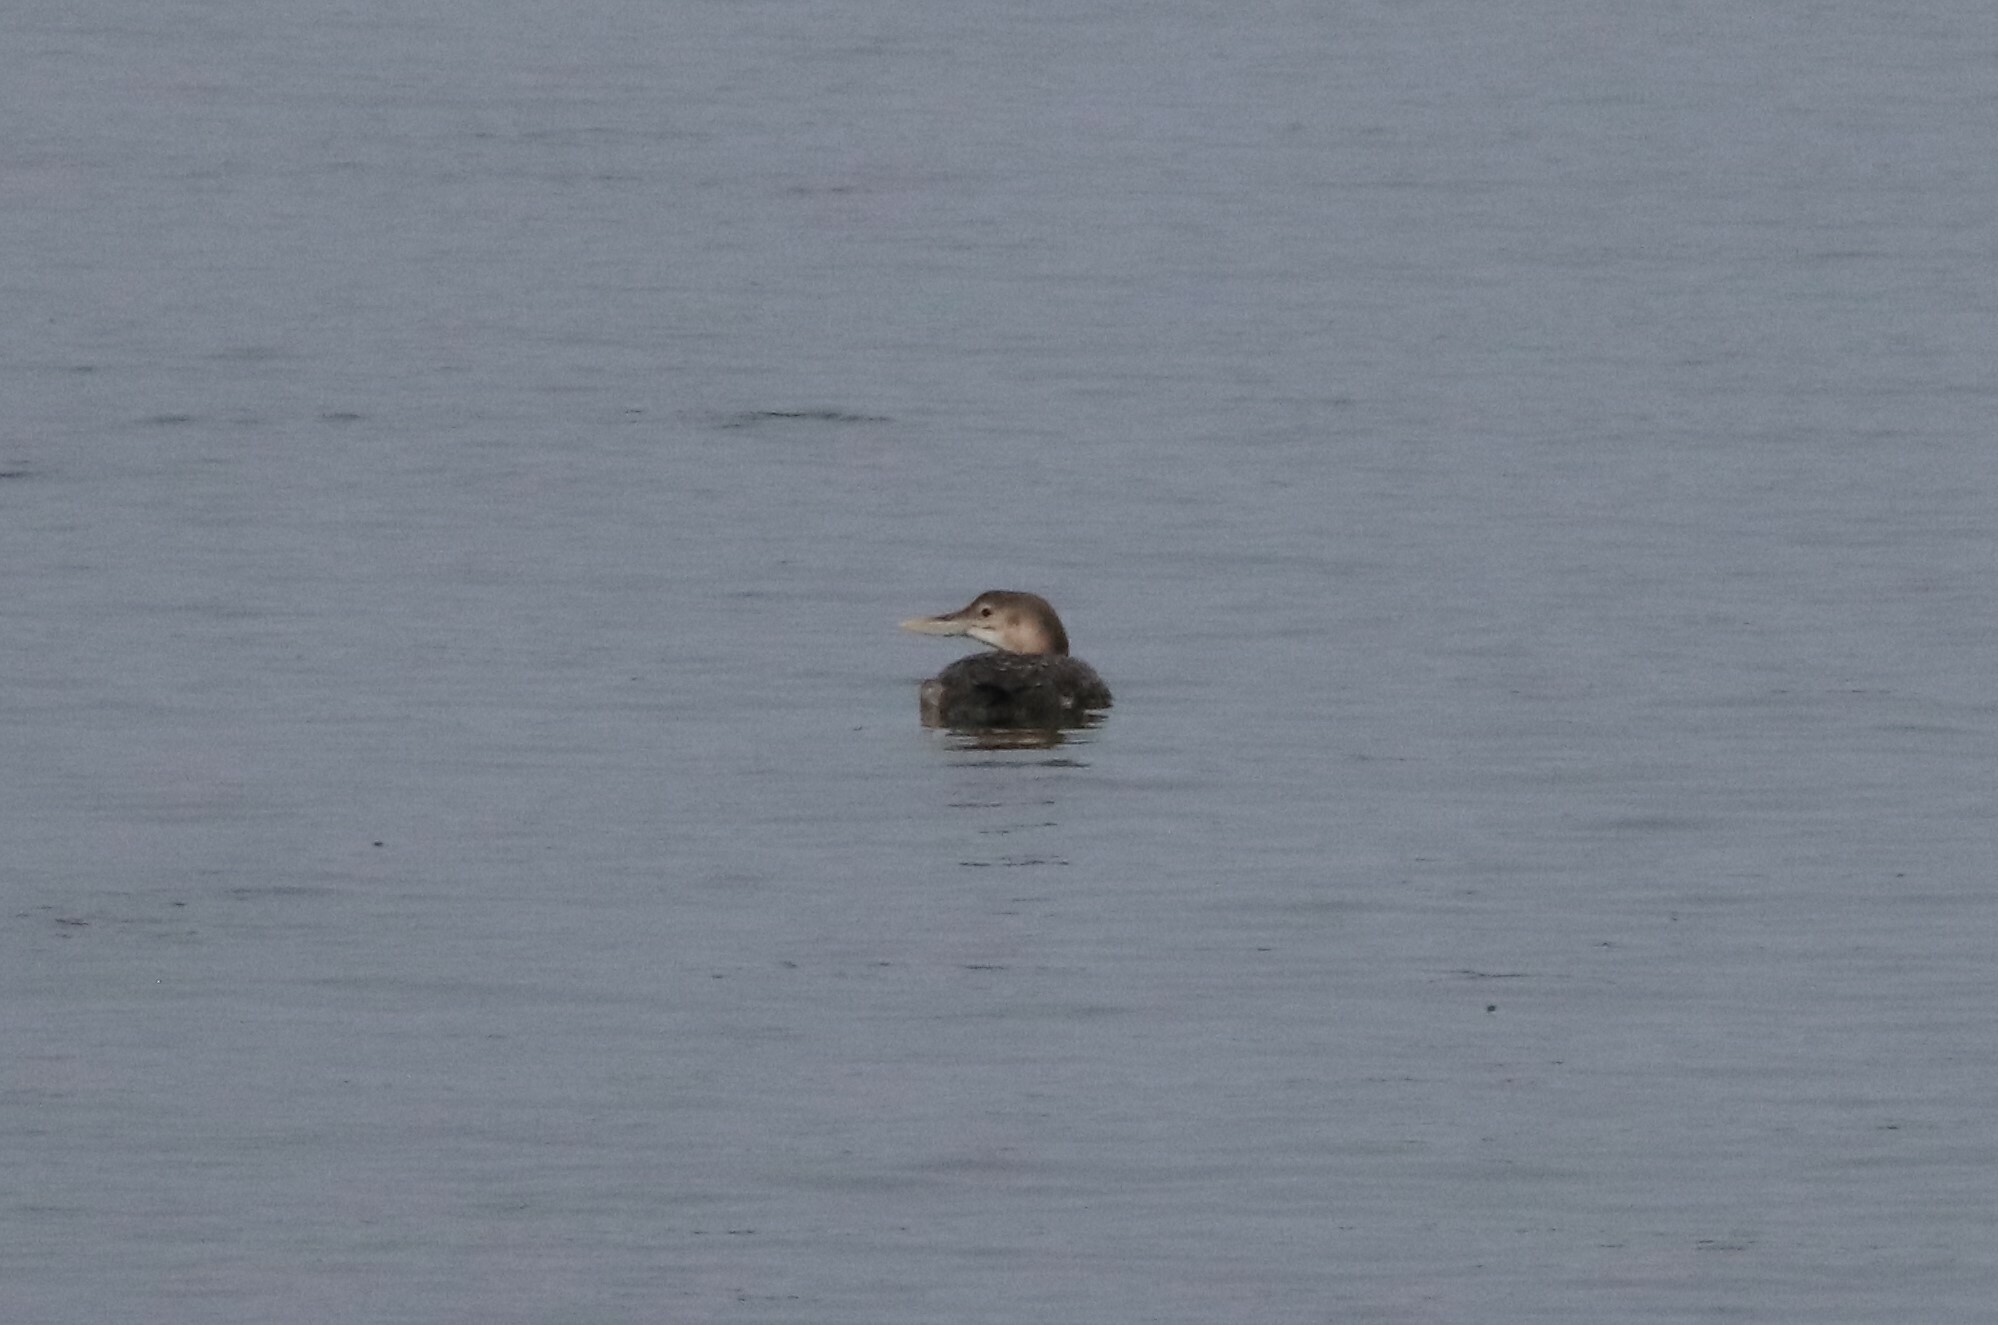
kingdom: Animalia
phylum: Chordata
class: Aves
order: Gaviiformes
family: Gaviidae
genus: Gavia
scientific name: Gavia adamsii
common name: Yellow-billed loon
